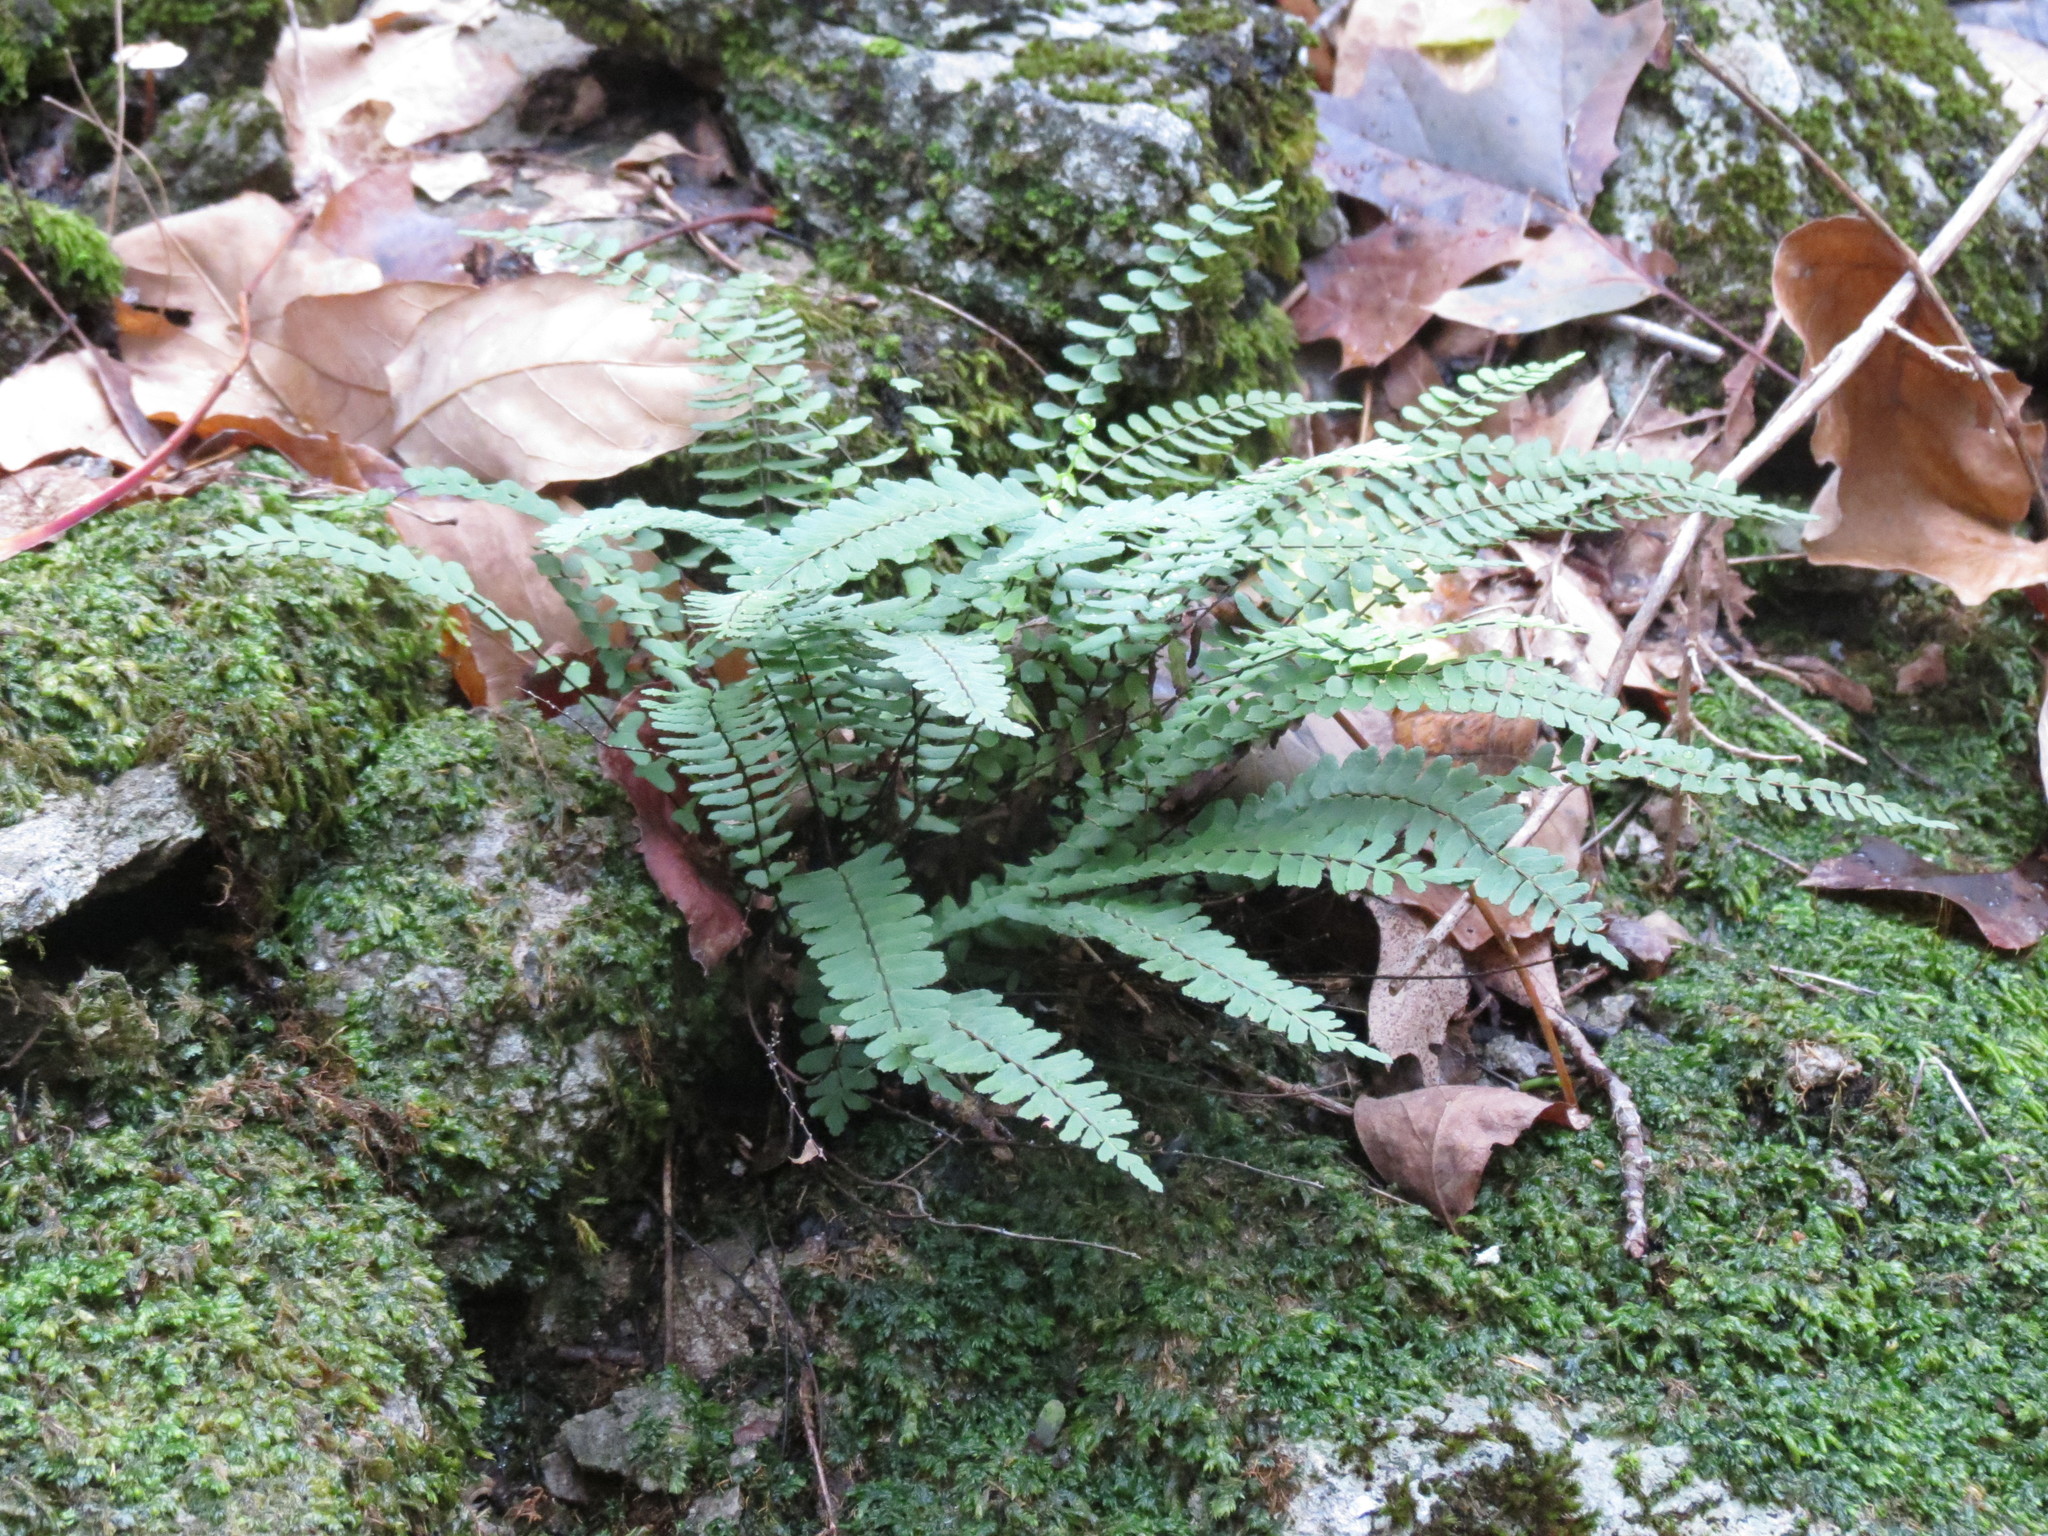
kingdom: Plantae
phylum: Tracheophyta
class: Polypodiopsida
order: Polypodiales
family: Aspleniaceae
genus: Asplenium
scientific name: Asplenium resiliens
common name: Blackstem spleenwort
